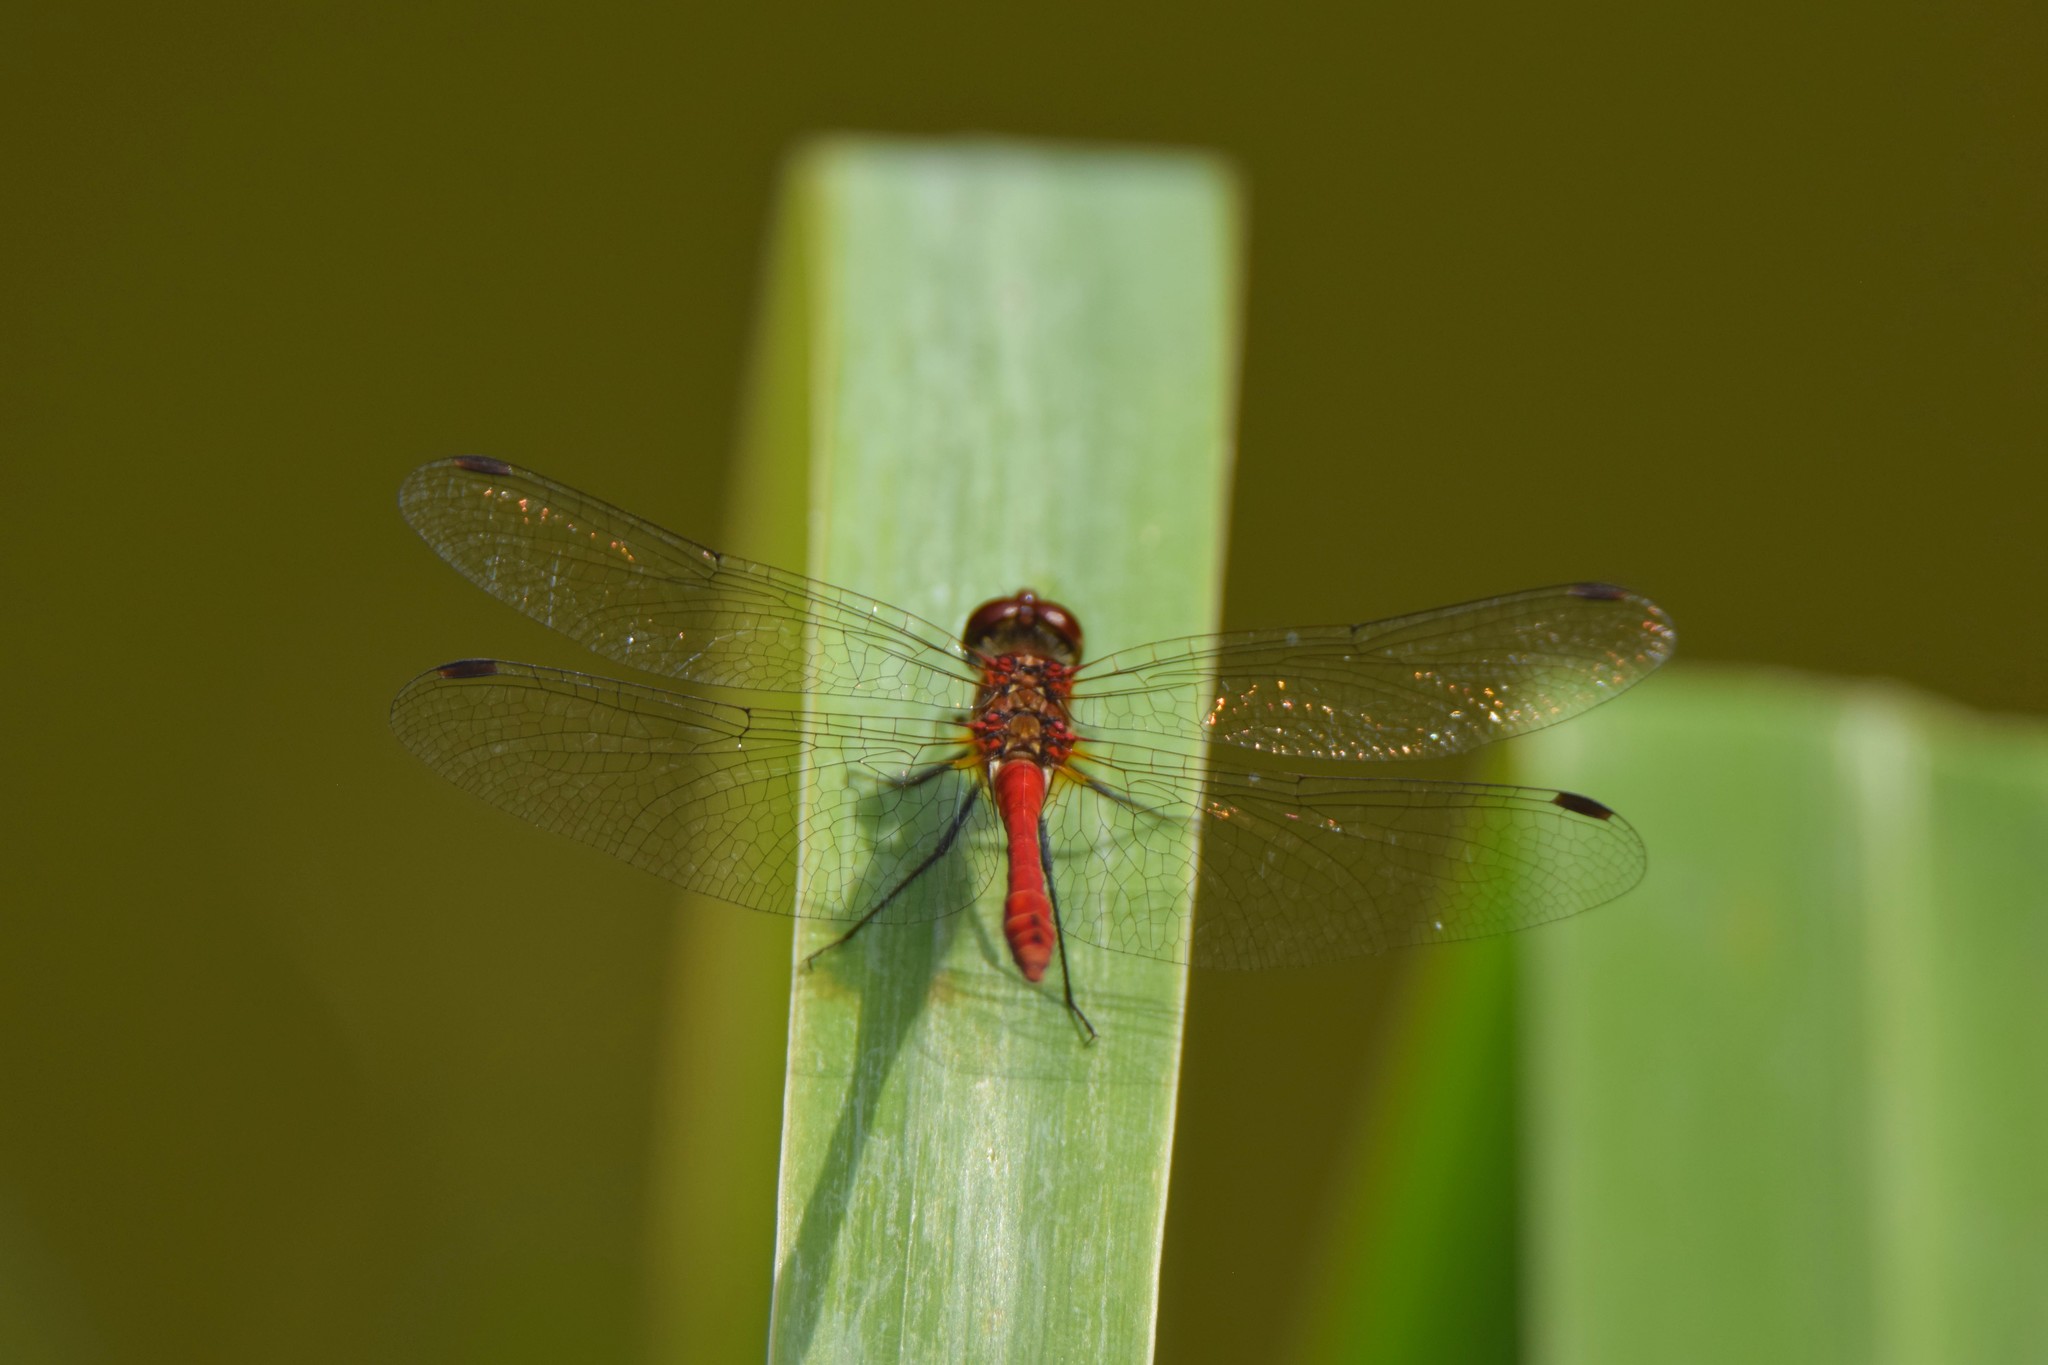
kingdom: Animalia
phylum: Arthropoda
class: Insecta
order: Odonata
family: Libellulidae
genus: Sympetrum
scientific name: Sympetrum sanguineum
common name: Ruddy darter
